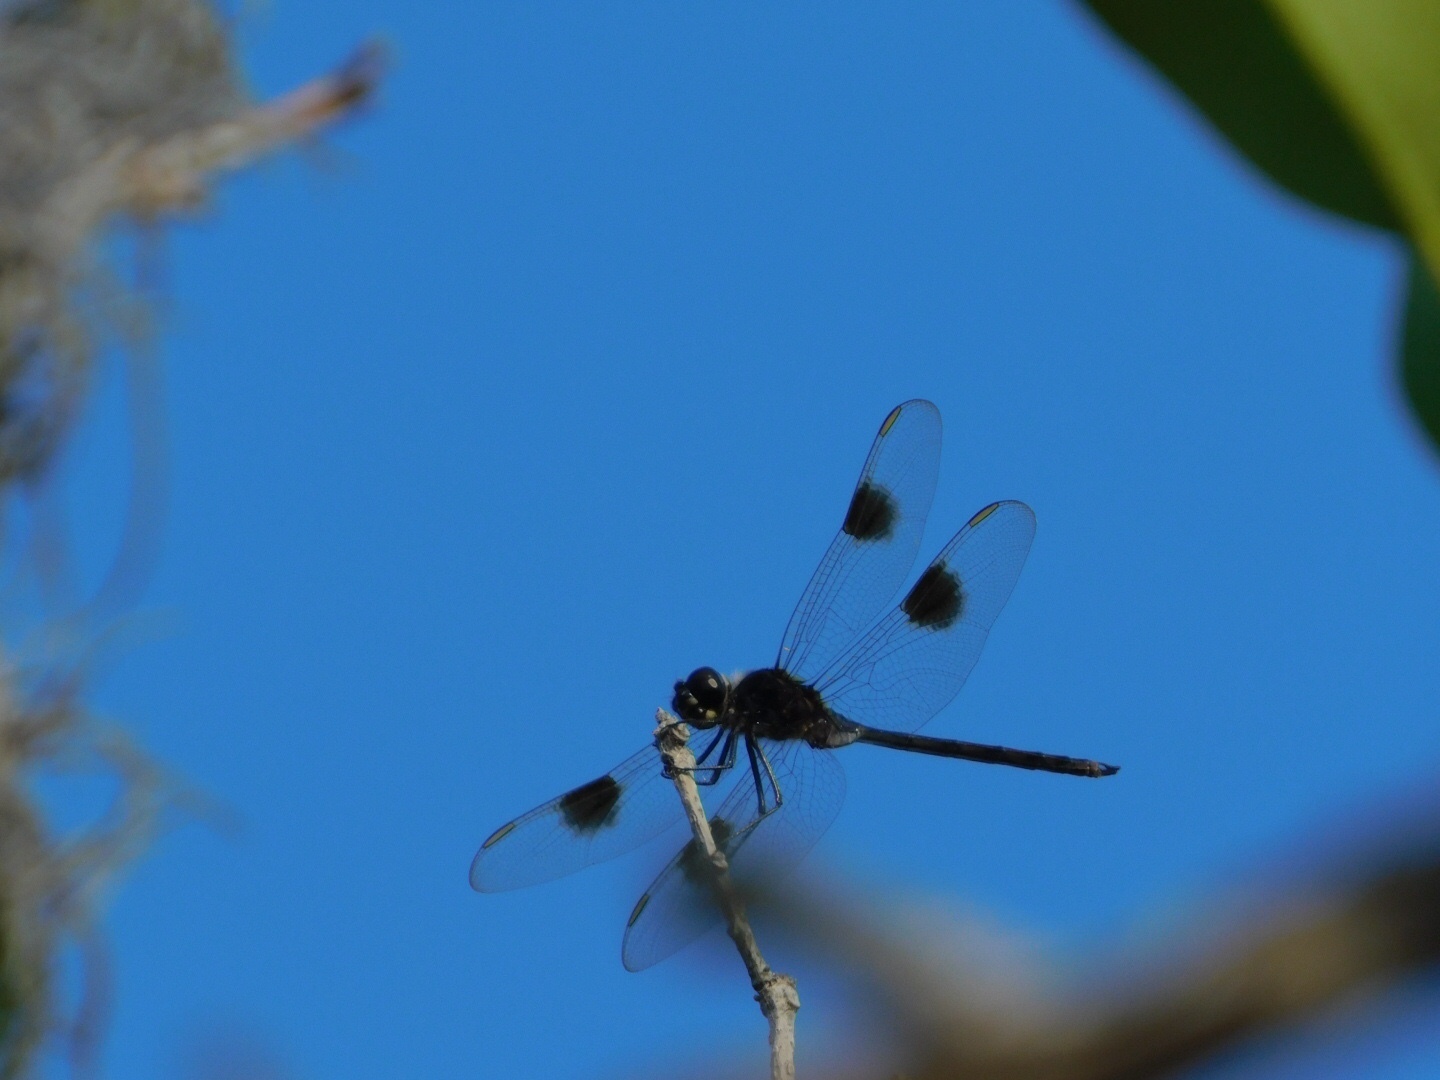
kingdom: Animalia
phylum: Arthropoda
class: Insecta
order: Odonata
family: Libellulidae
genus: Brachymesia
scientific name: Brachymesia gravida
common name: Four-spotted pennant
